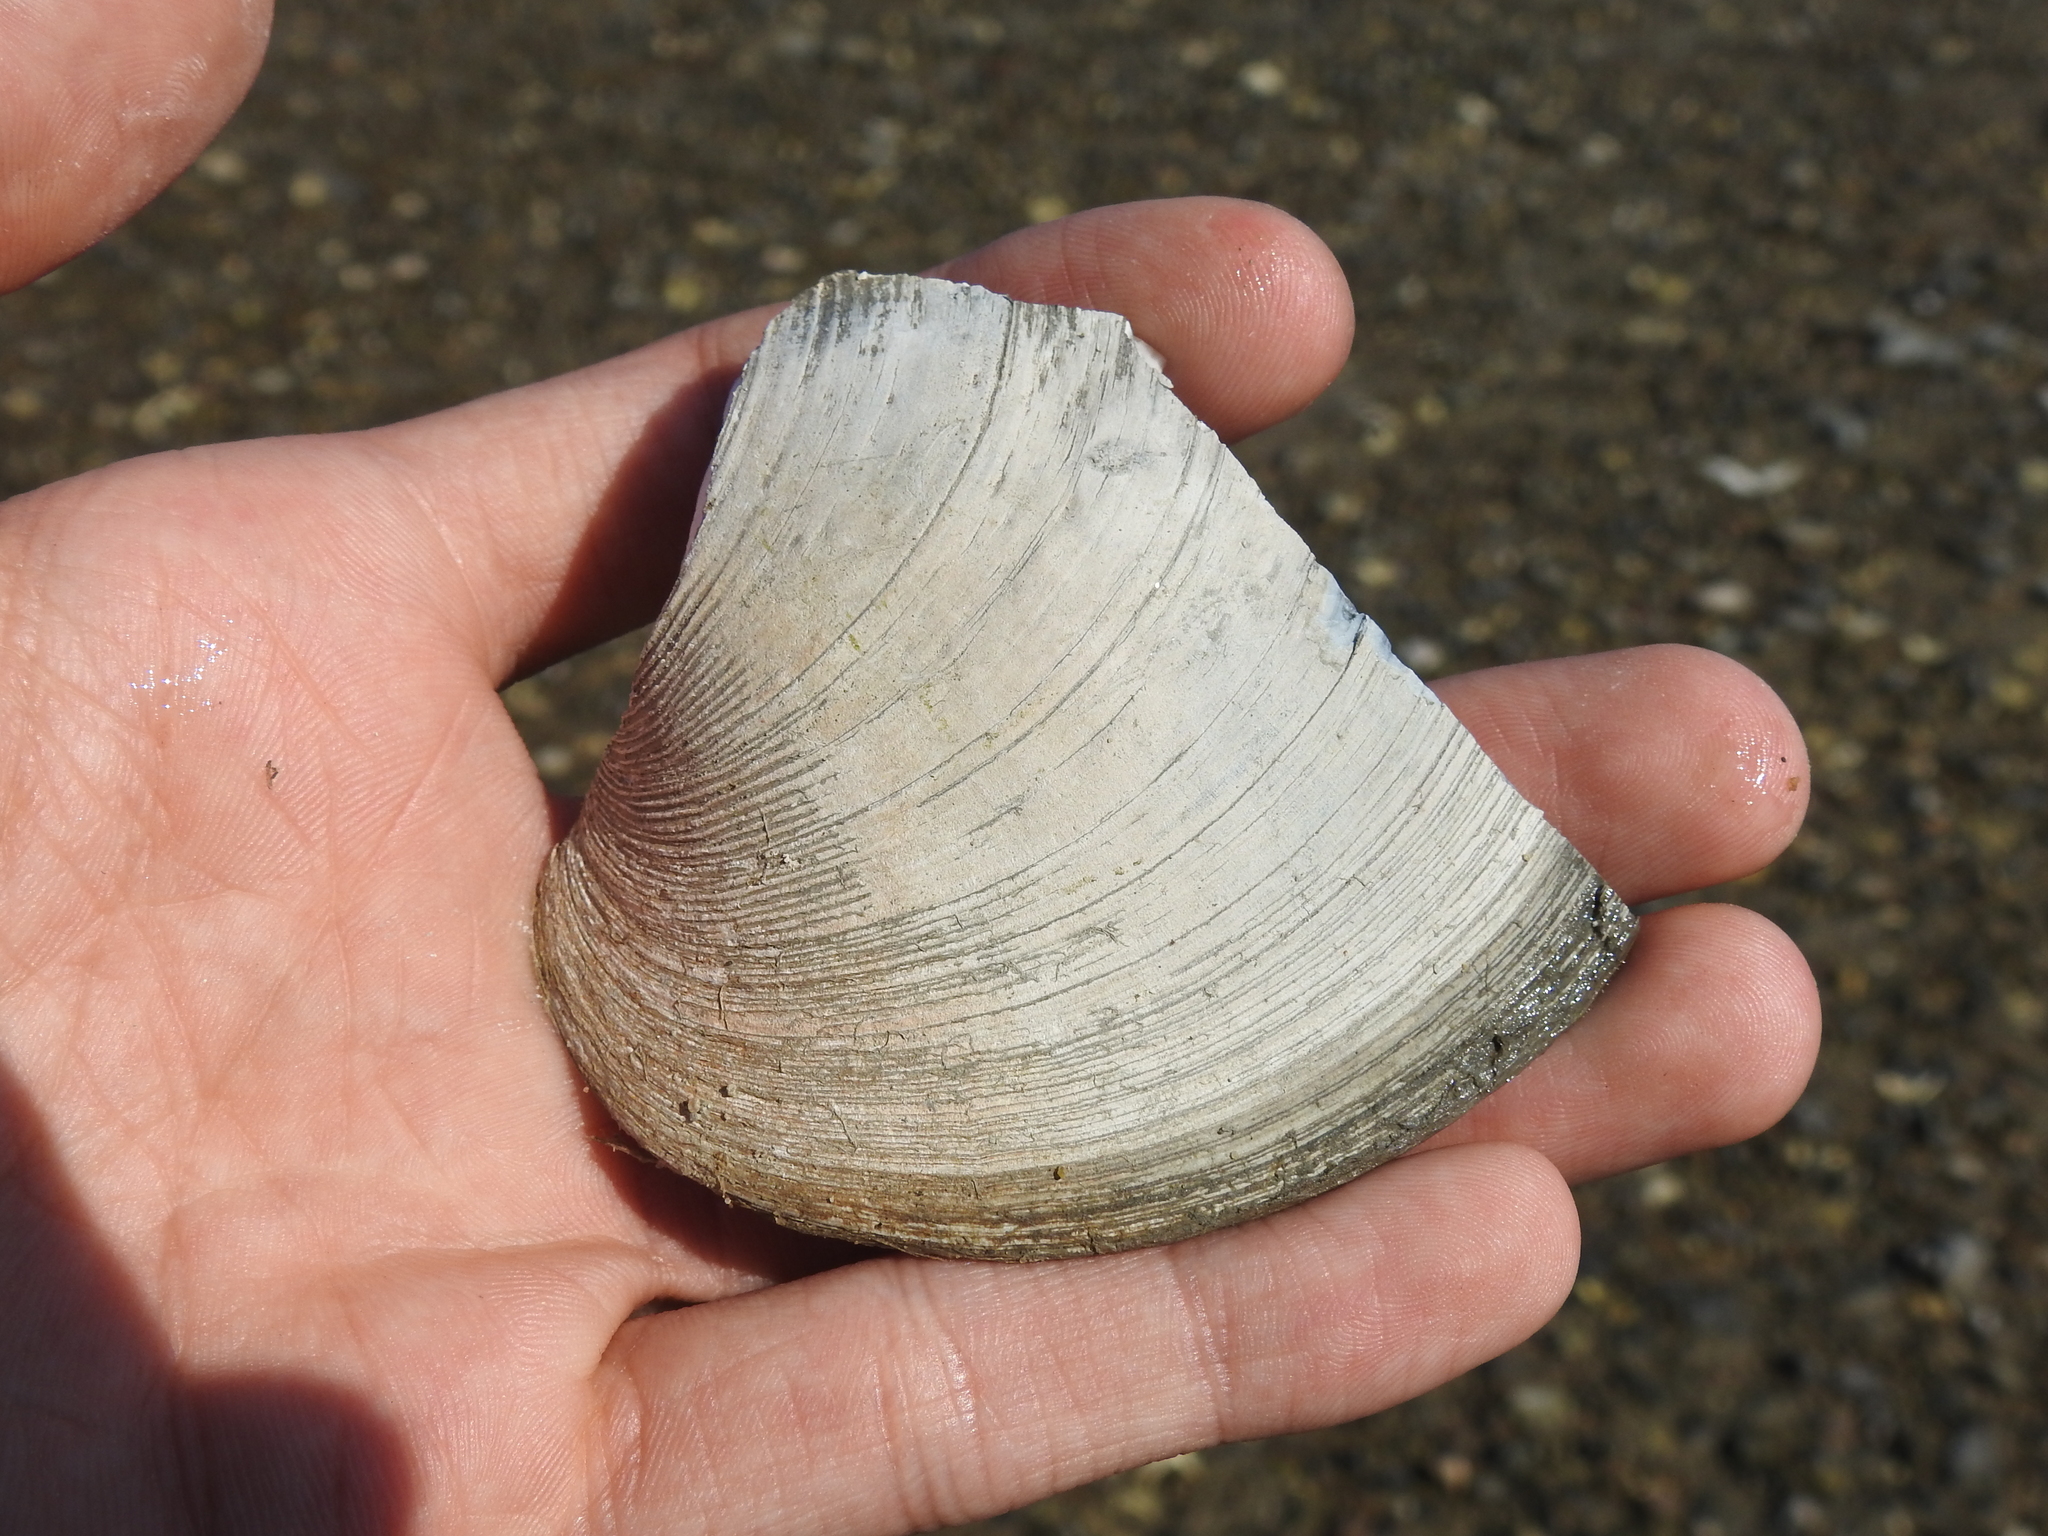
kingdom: Animalia
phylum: Mollusca
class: Bivalvia
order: Venerida
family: Veneridae
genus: Mercenaria
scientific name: Mercenaria mercenaria
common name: American hard-shelled clam
